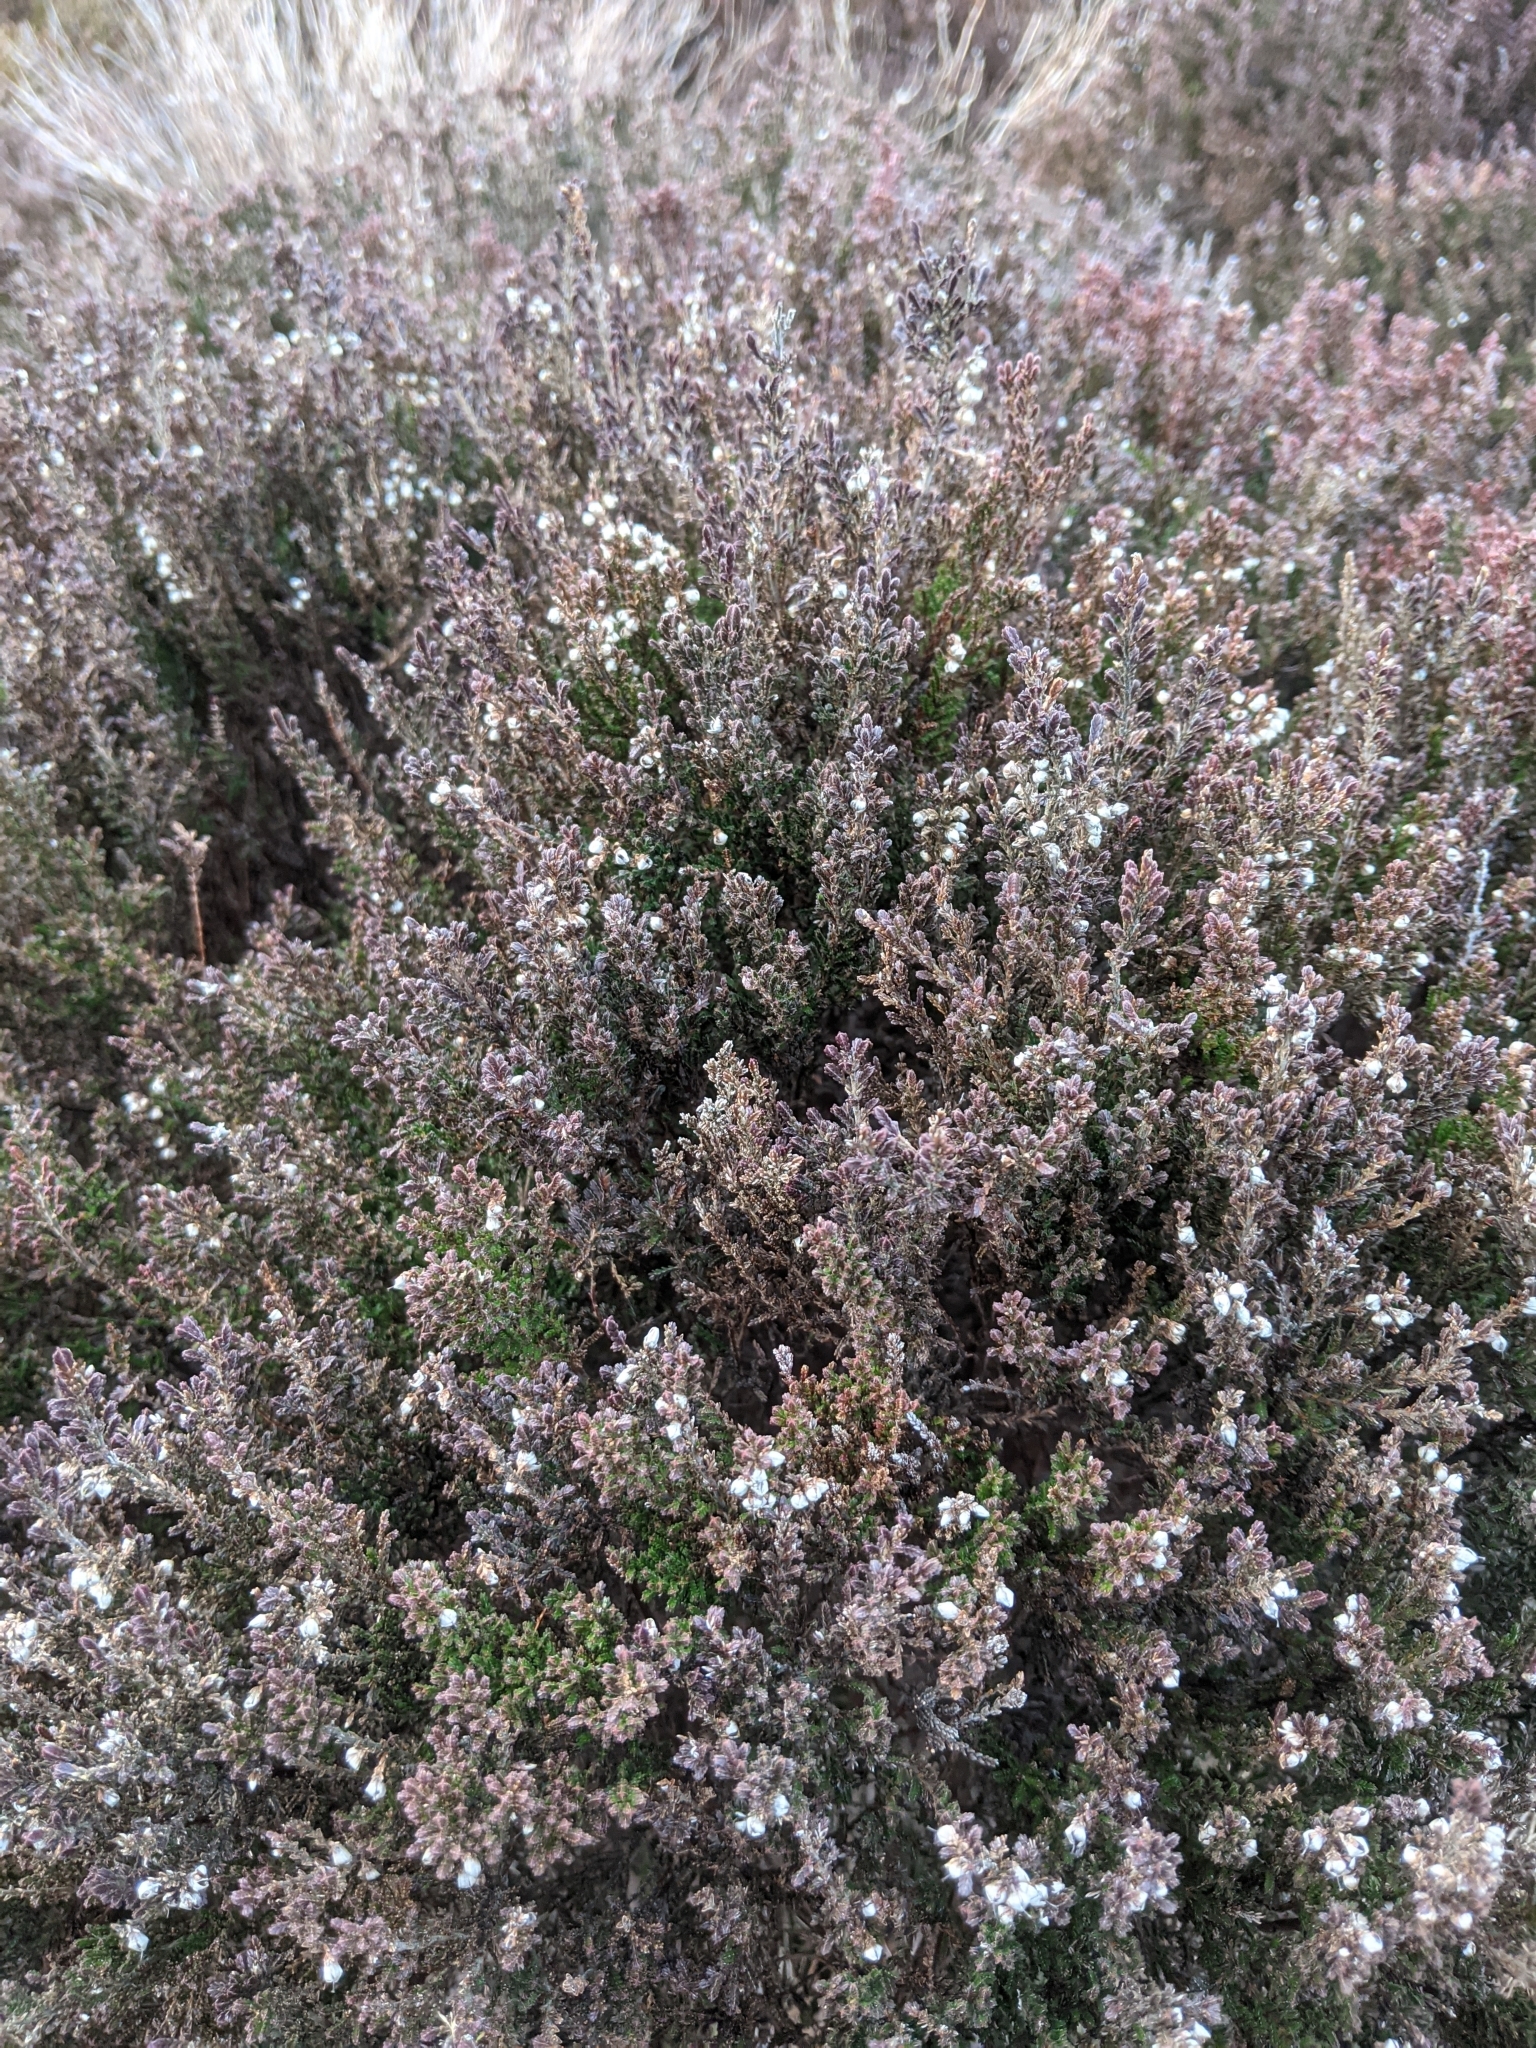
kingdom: Plantae
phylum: Tracheophyta
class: Magnoliopsida
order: Ericales
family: Ericaceae
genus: Calluna
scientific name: Calluna vulgaris
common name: Heather
